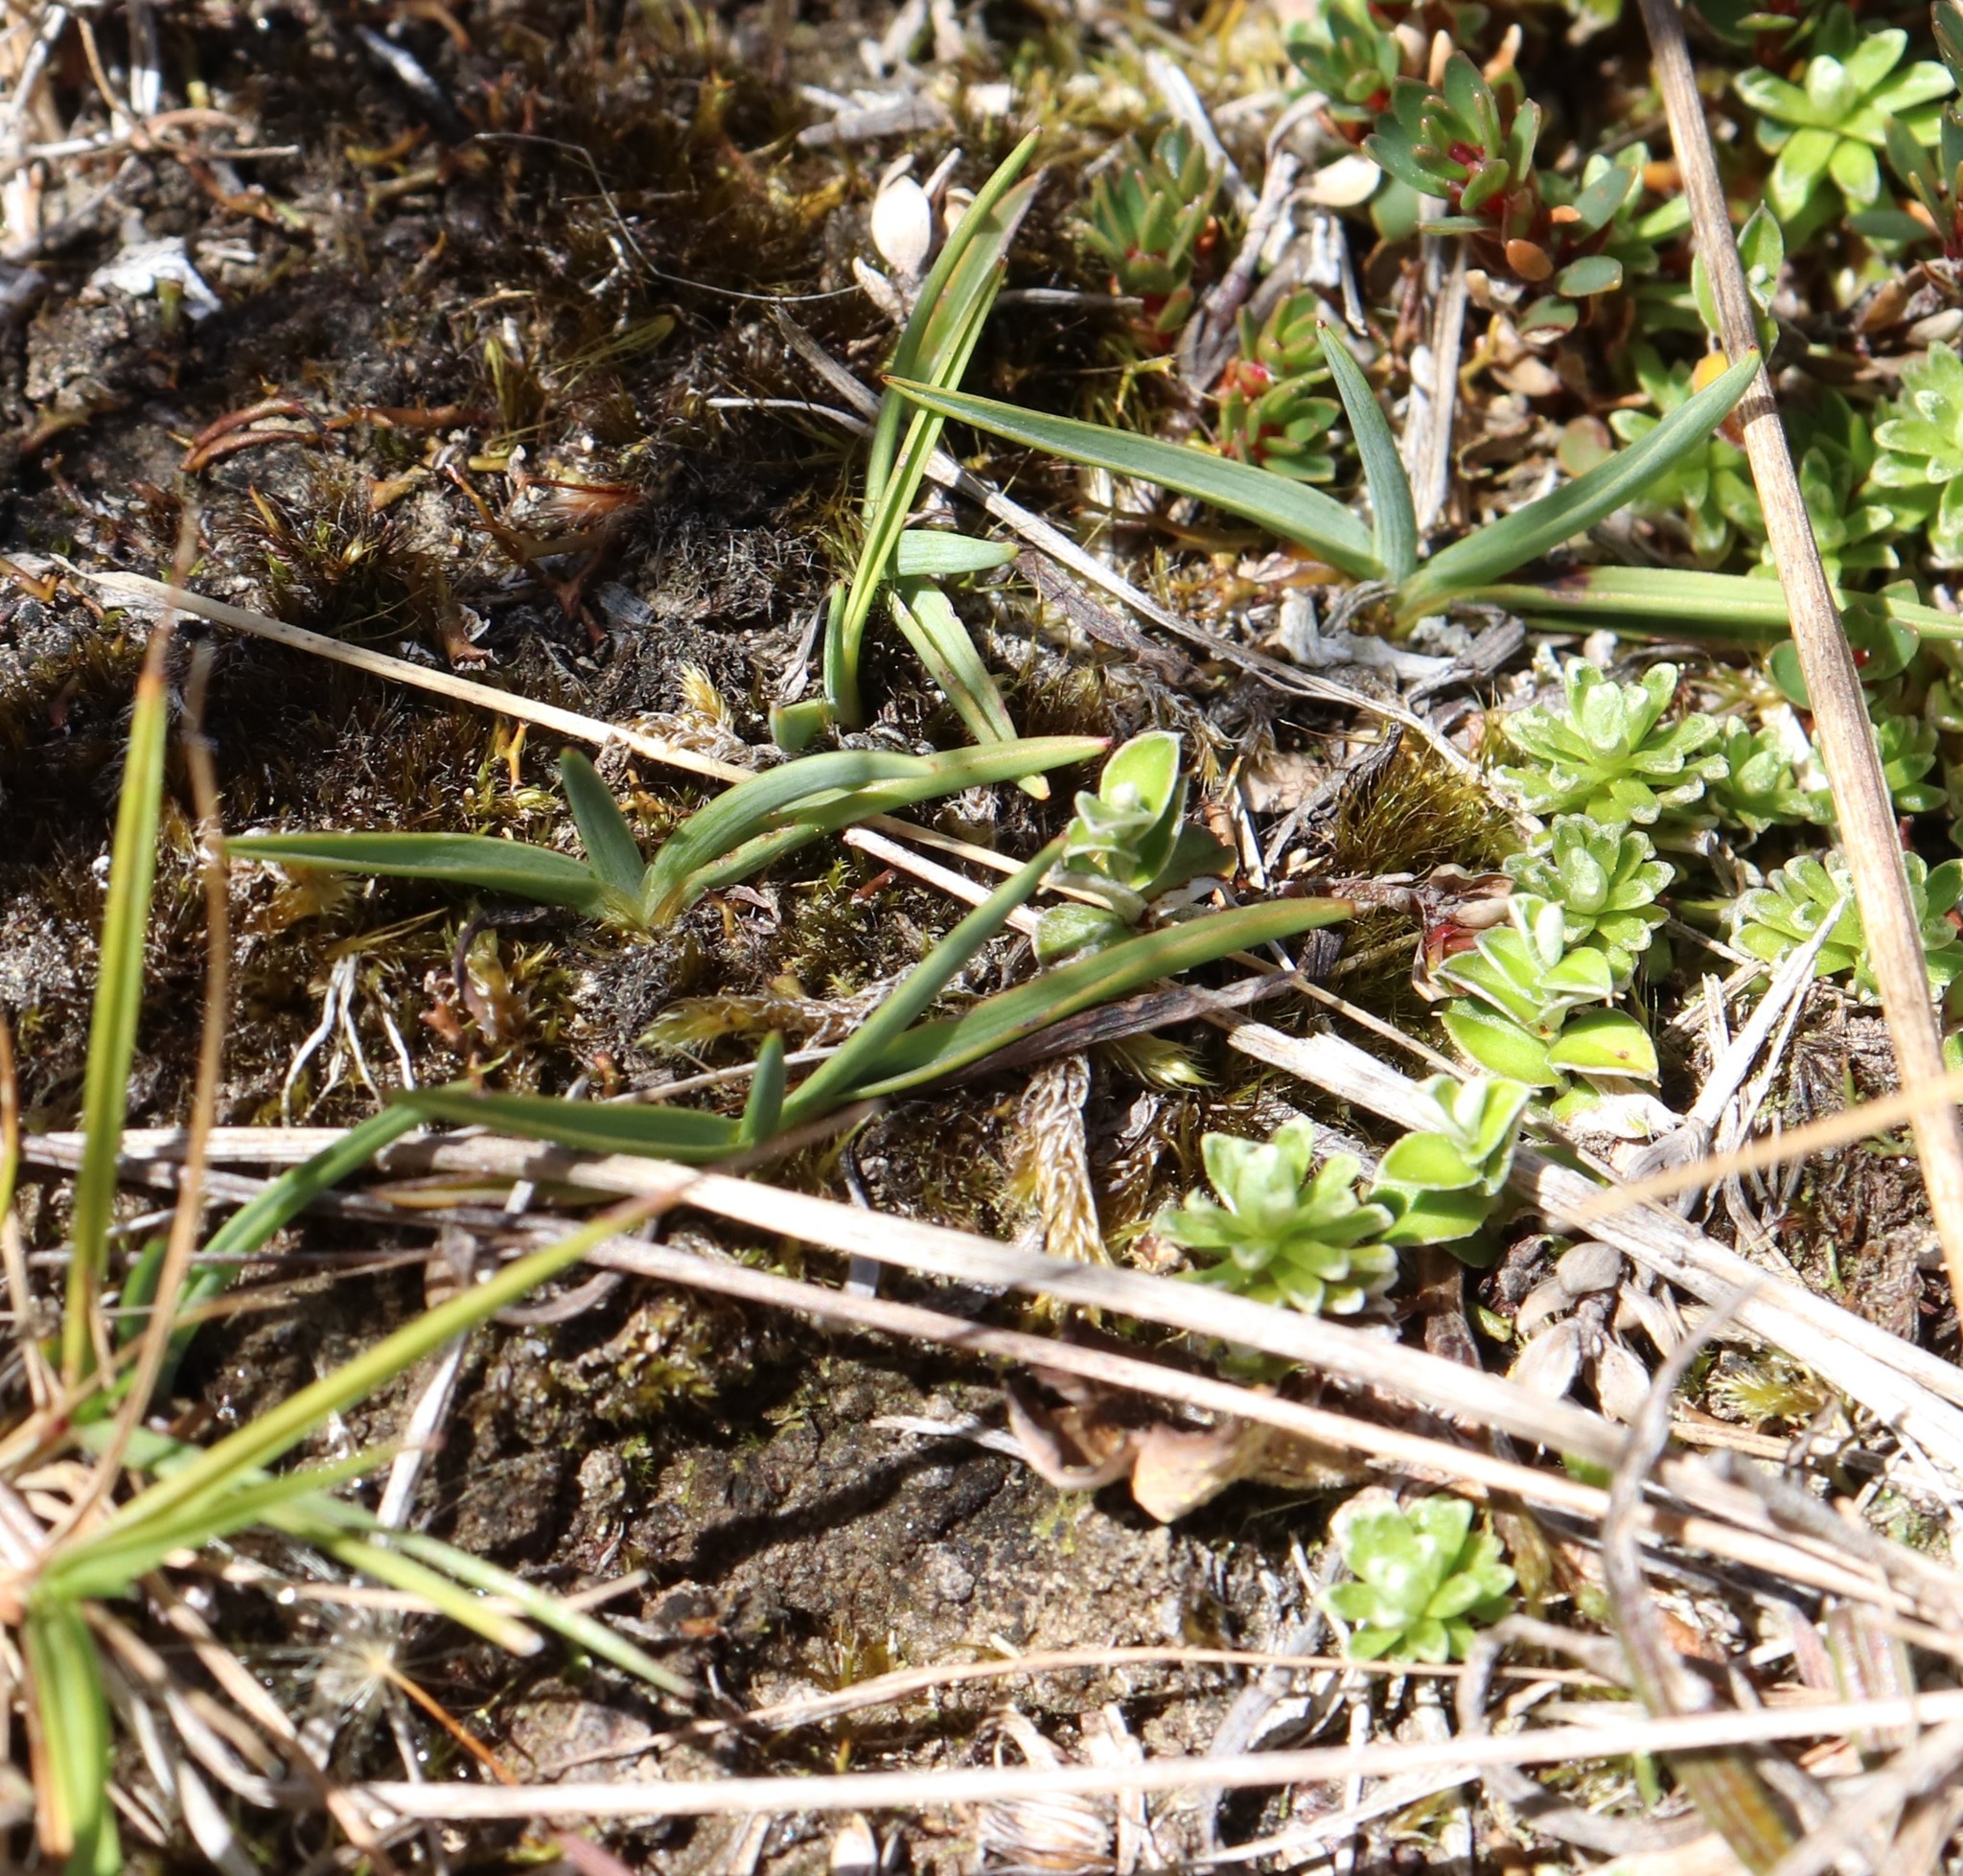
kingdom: Plantae
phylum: Tracheophyta
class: Liliopsida
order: Asparagales
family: Asphodelaceae
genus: Herpolirion
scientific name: Herpolirion novae-zelandiae
